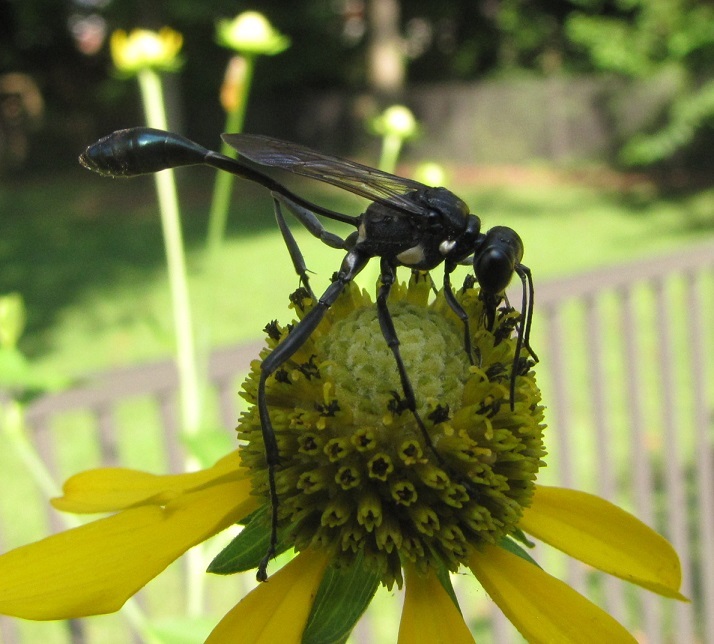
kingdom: Animalia
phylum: Arthropoda
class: Insecta
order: Hymenoptera
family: Sphecidae
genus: Eremnophila
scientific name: Eremnophila aureonotata
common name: Gold-marked thread-waisted wasp
